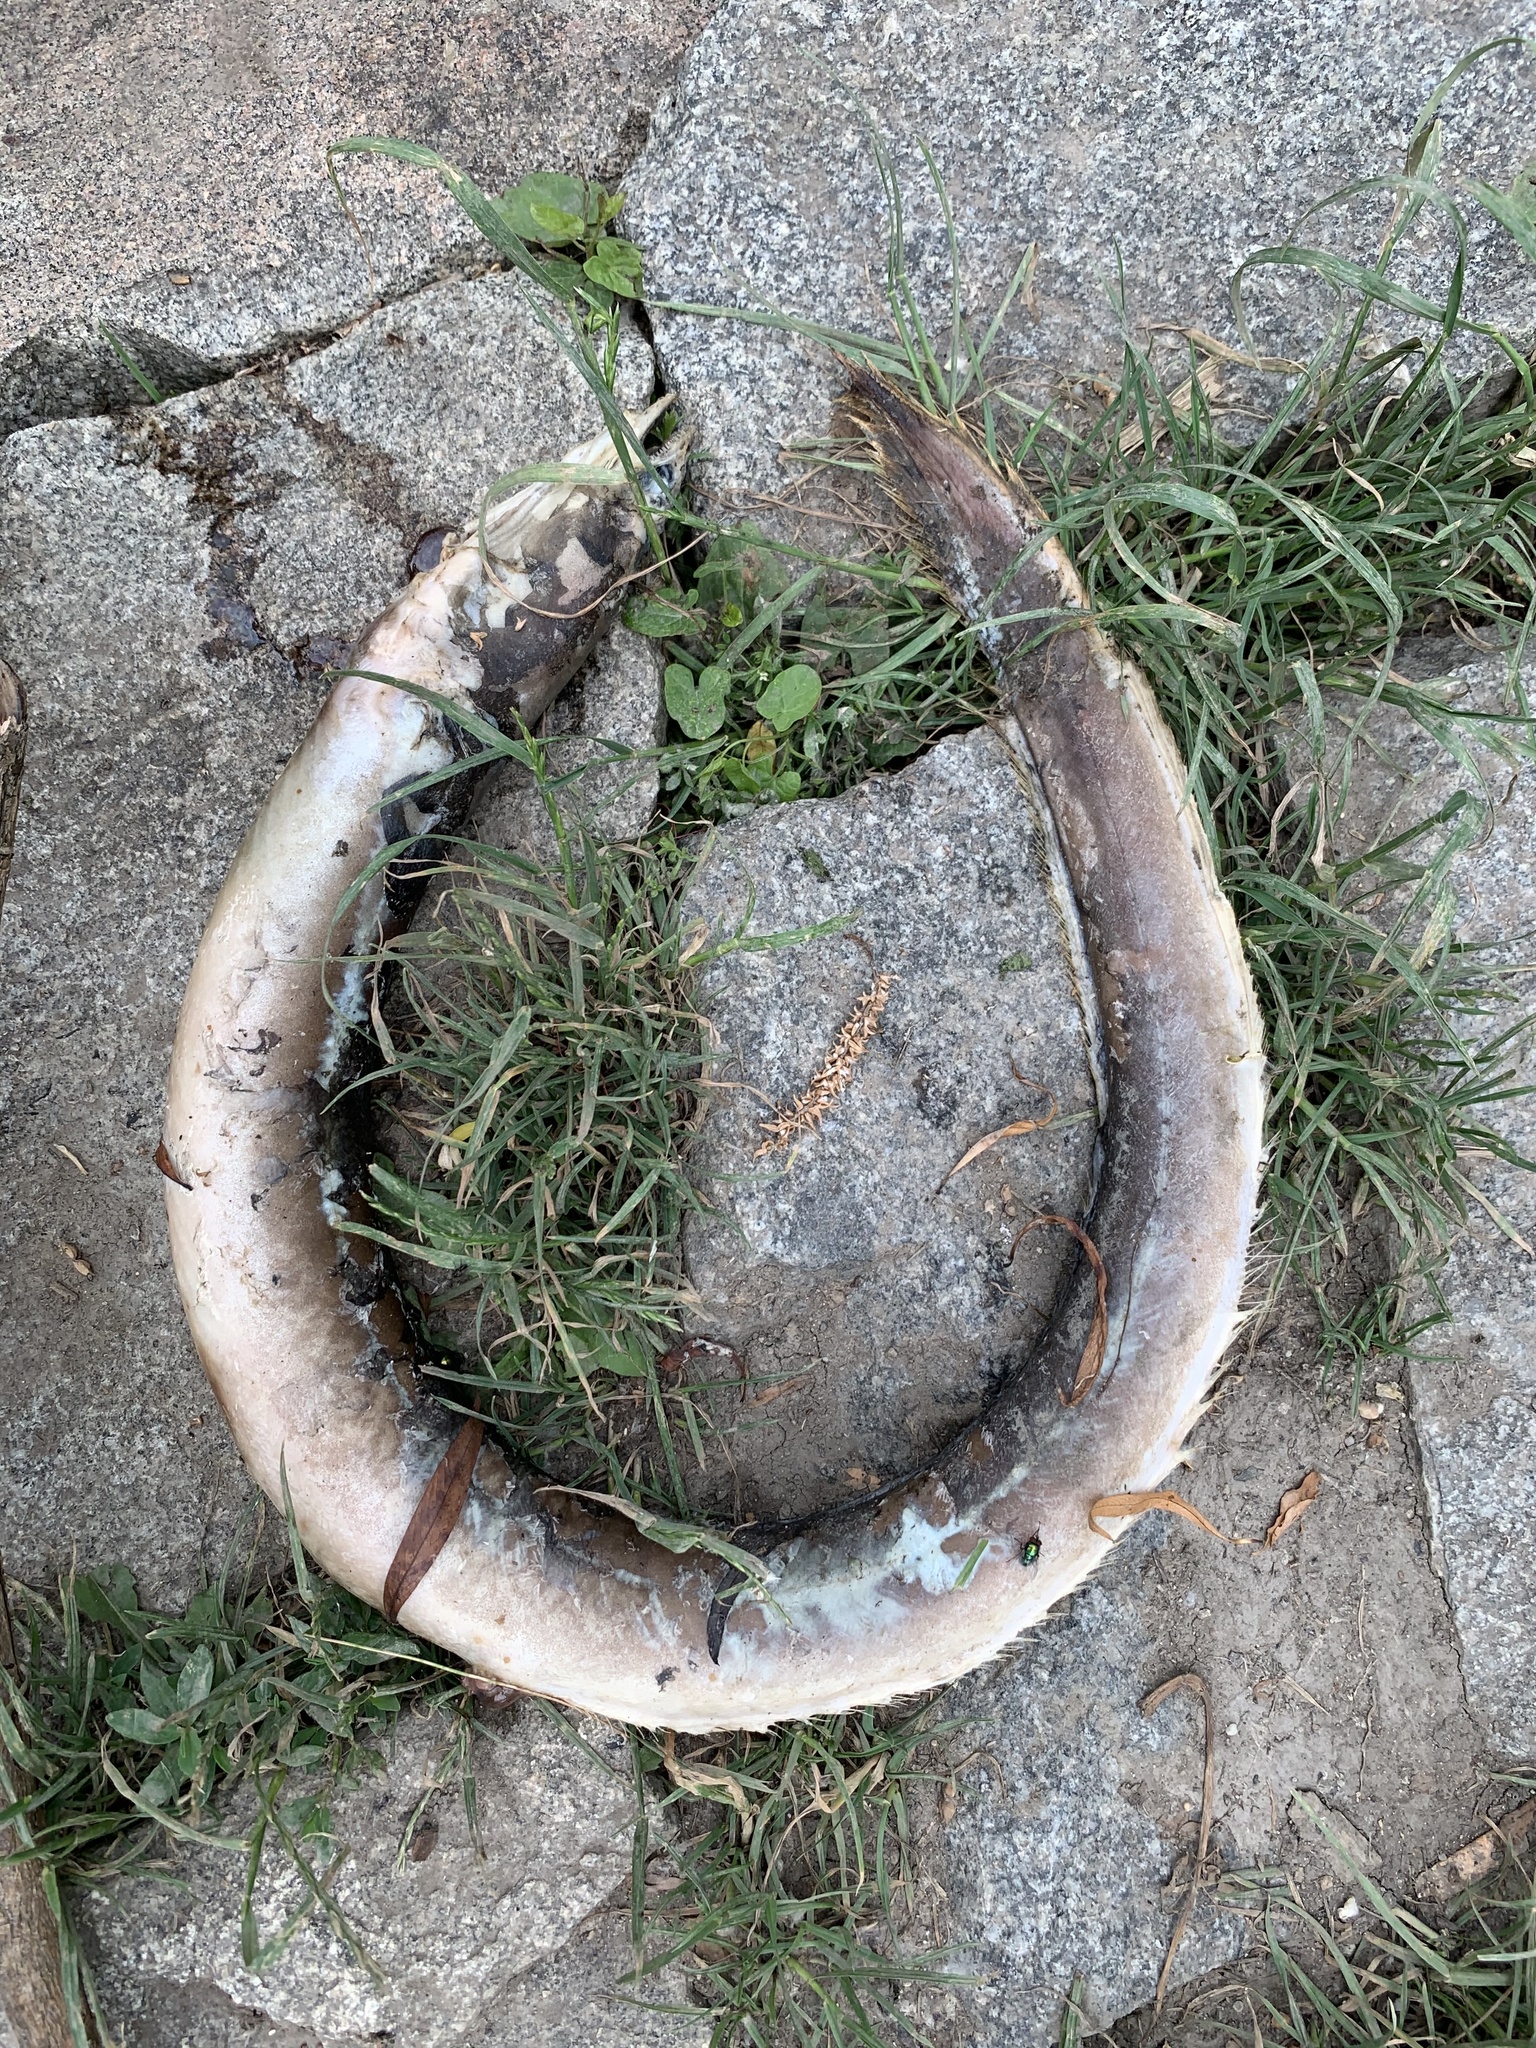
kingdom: Animalia
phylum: Chordata
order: Anguilliformes
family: Anguillidae
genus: Anguilla
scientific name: Anguilla anguilla
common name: European eel
